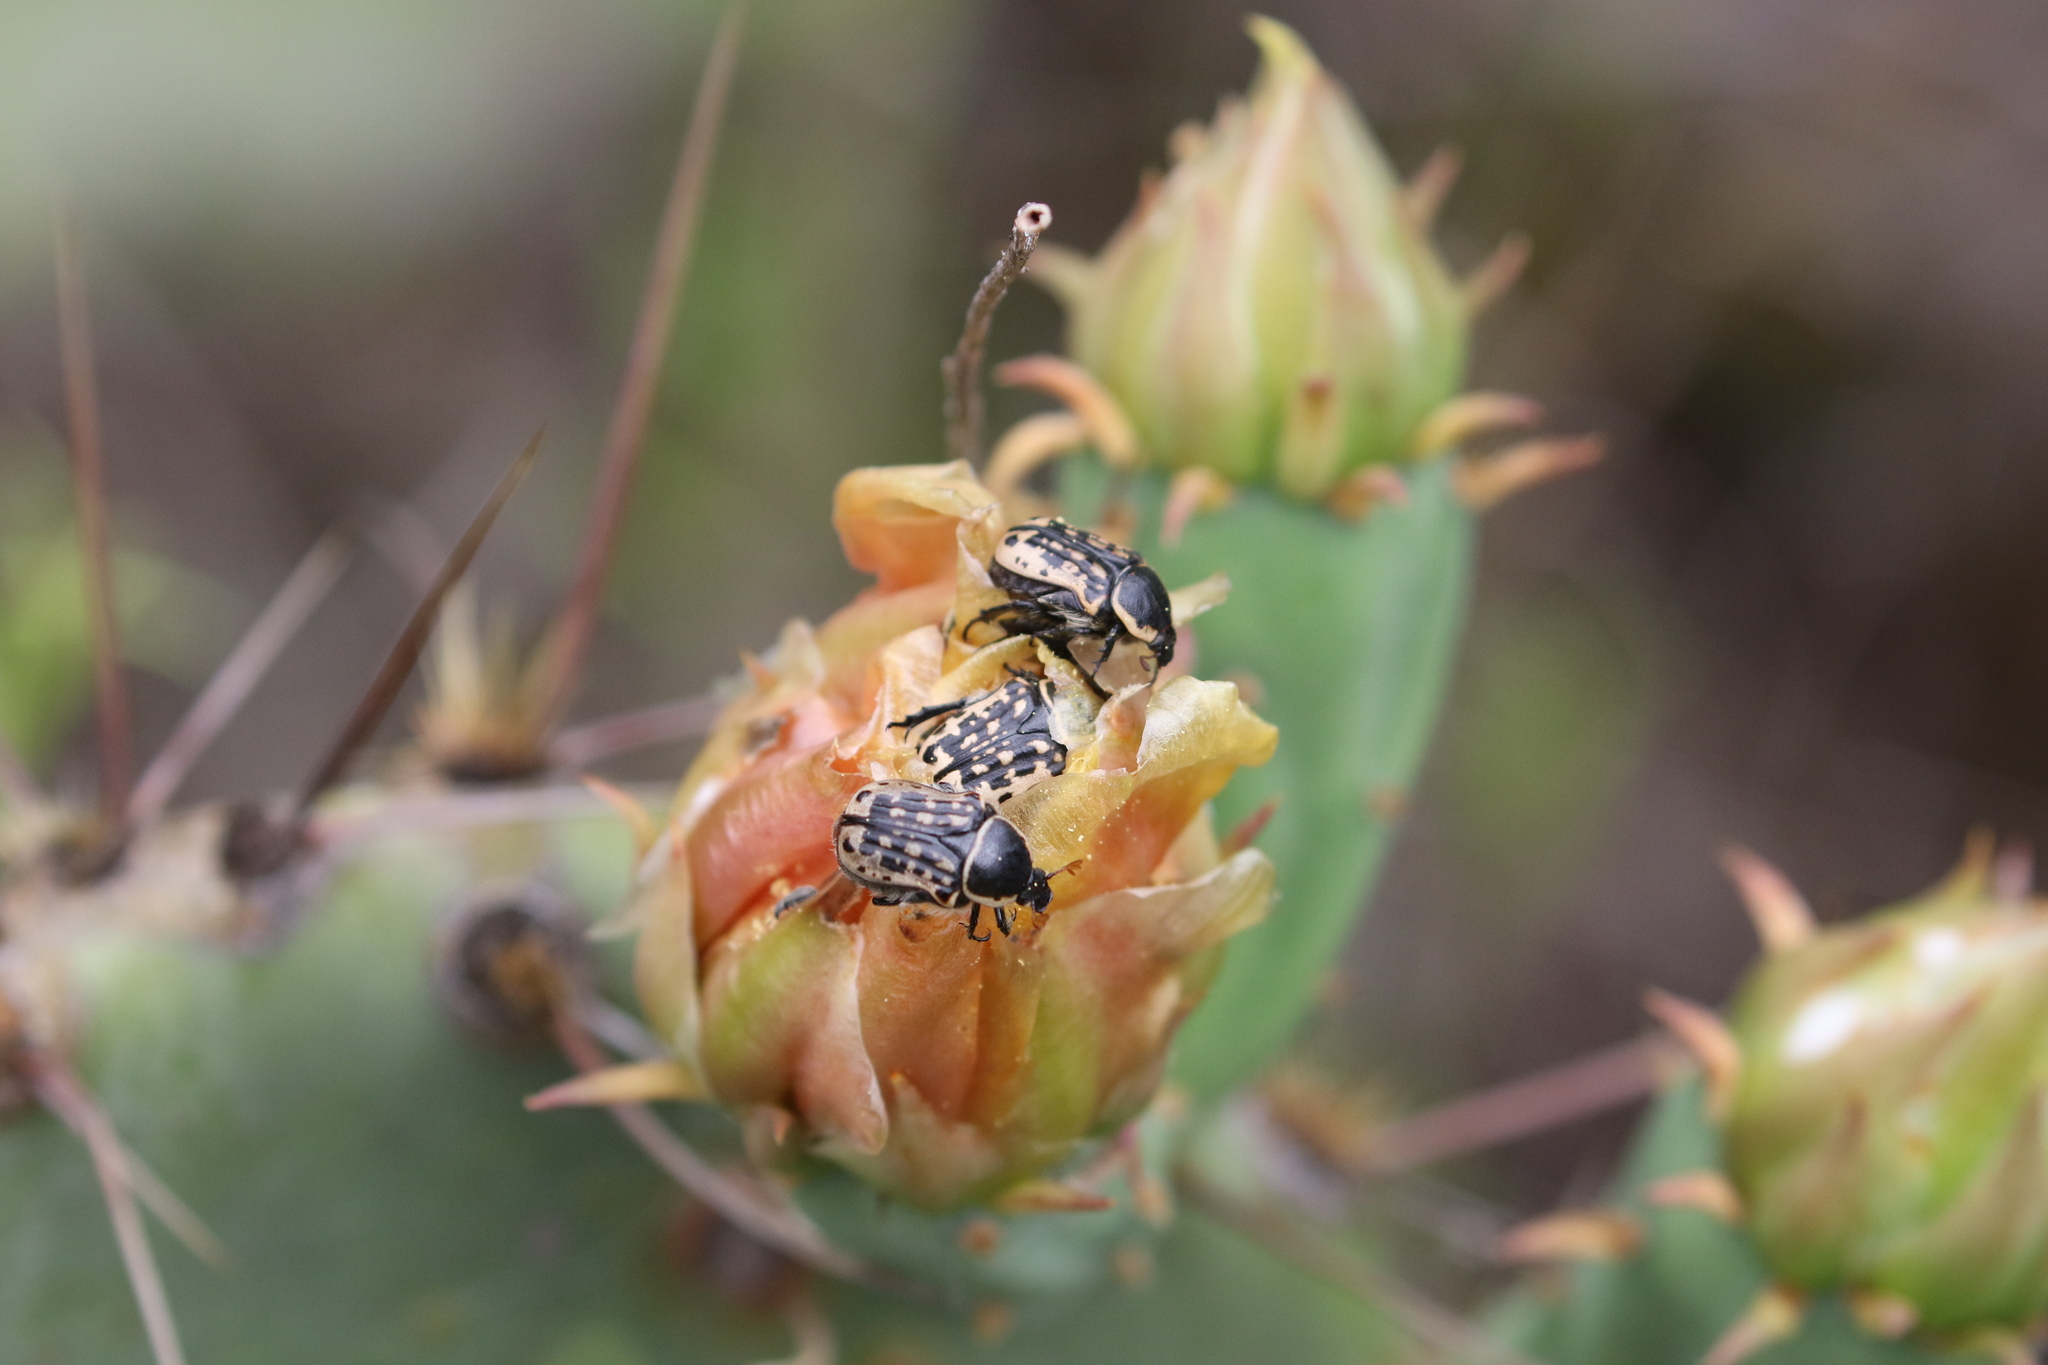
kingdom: Animalia
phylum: Arthropoda
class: Insecta
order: Coleoptera
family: Scarabaeidae
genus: Euphoria
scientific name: Euphoria kernii
